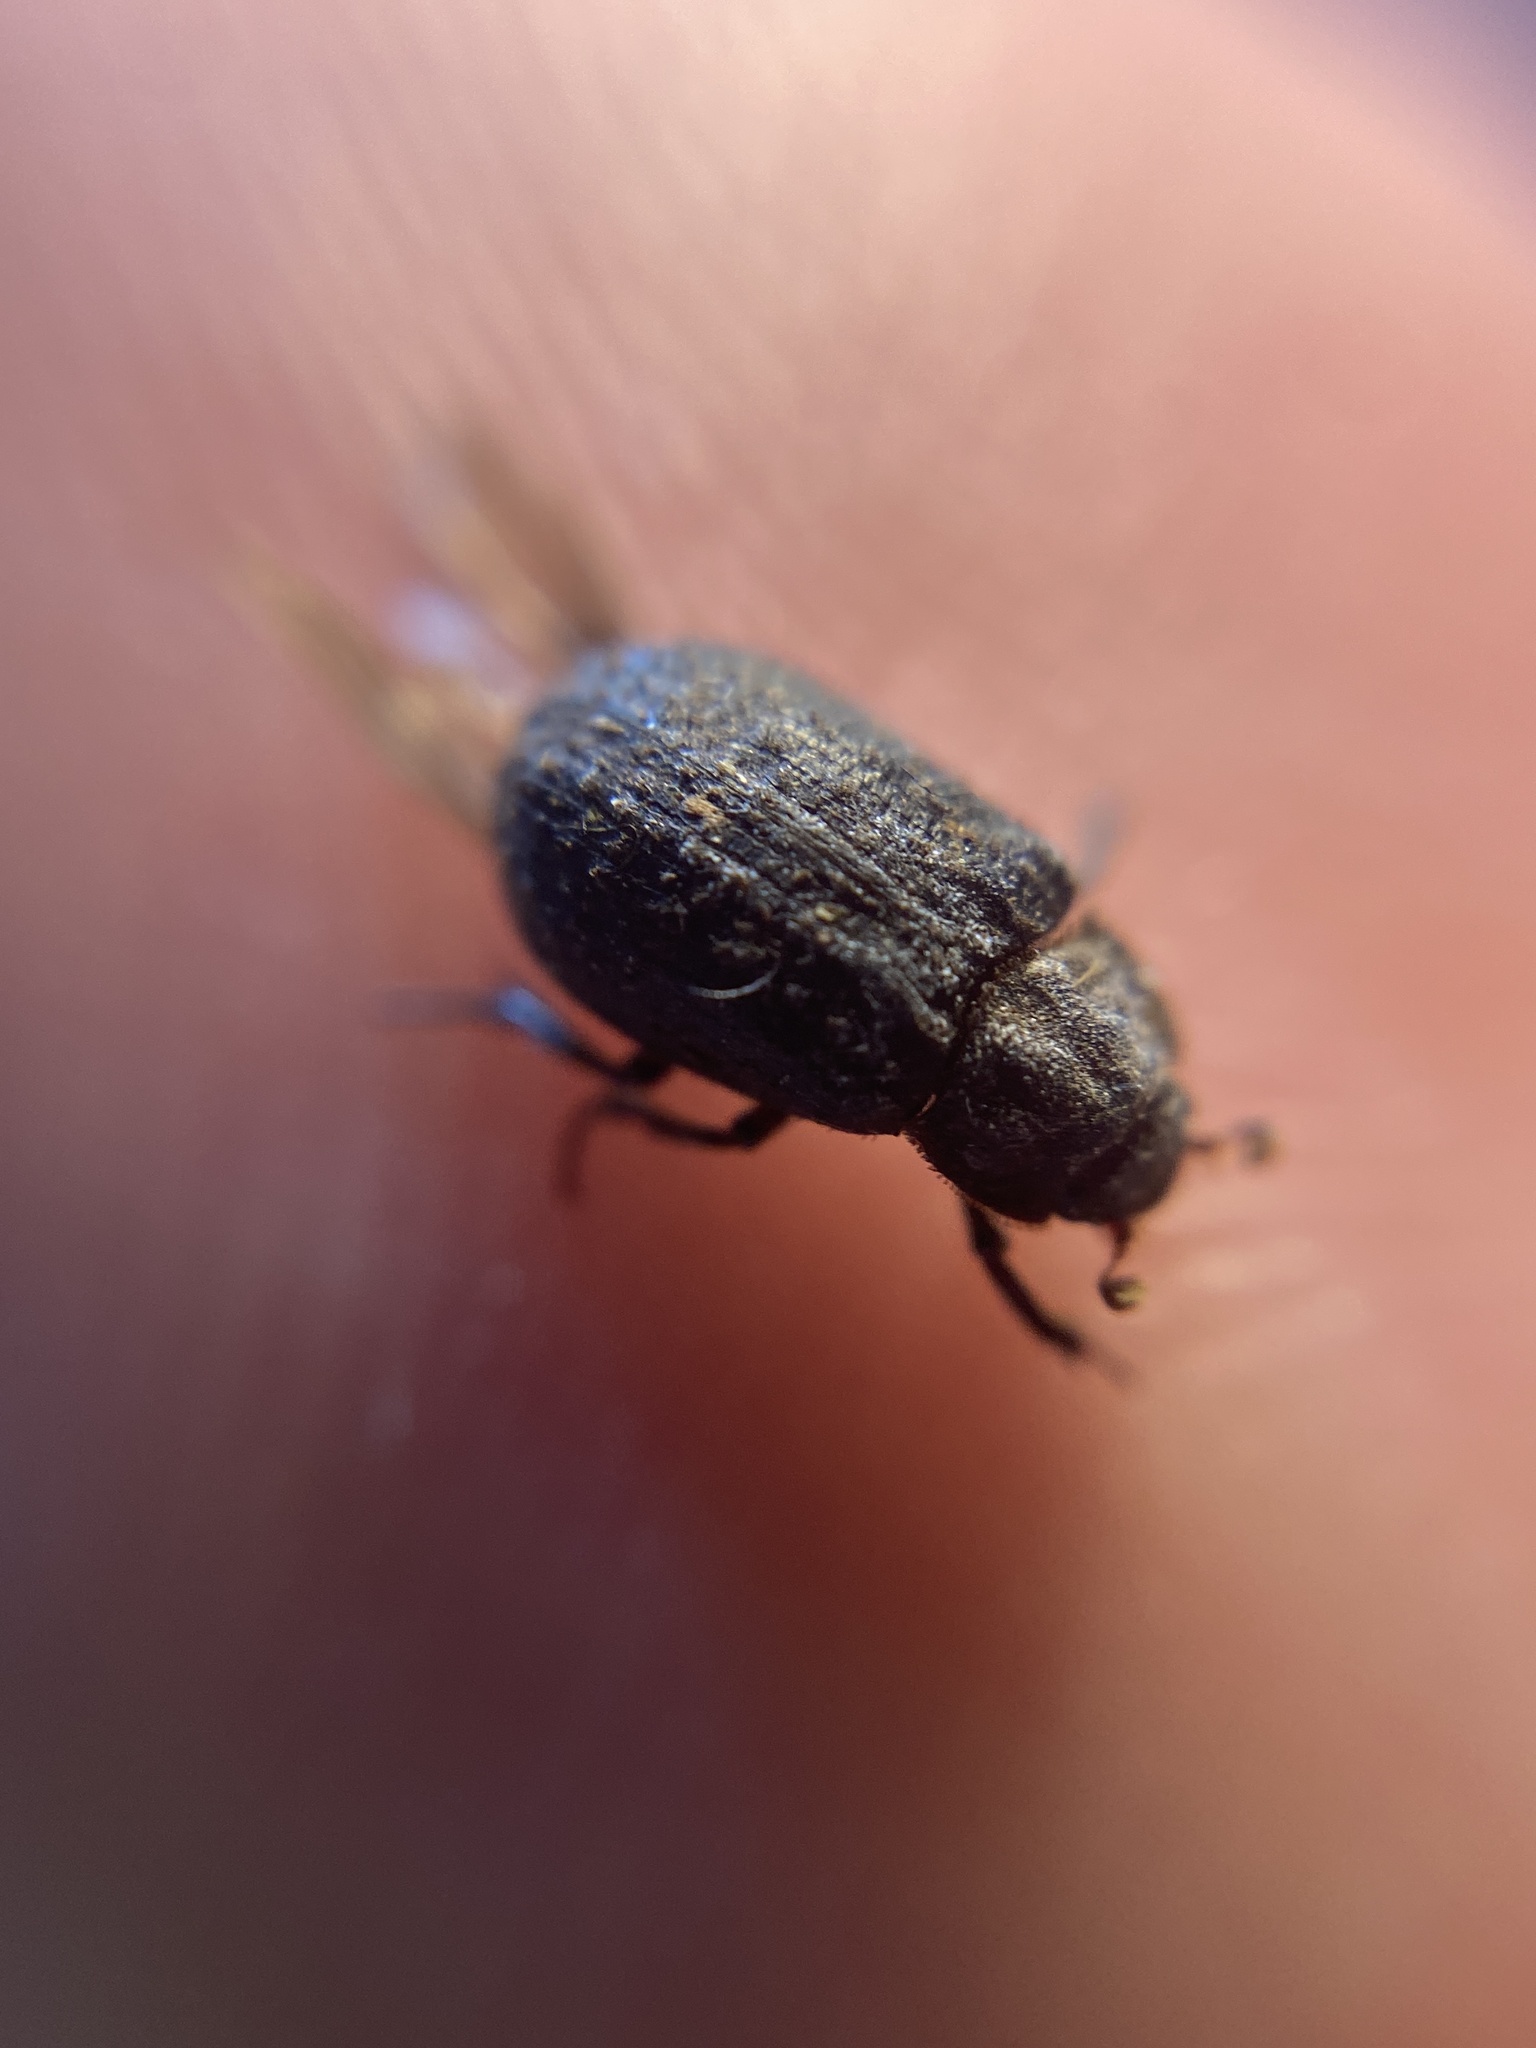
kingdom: Animalia
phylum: Arthropoda
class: Insecta
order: Coleoptera
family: Trogidae
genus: Trox
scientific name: Trox scaber
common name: Hide beetle
